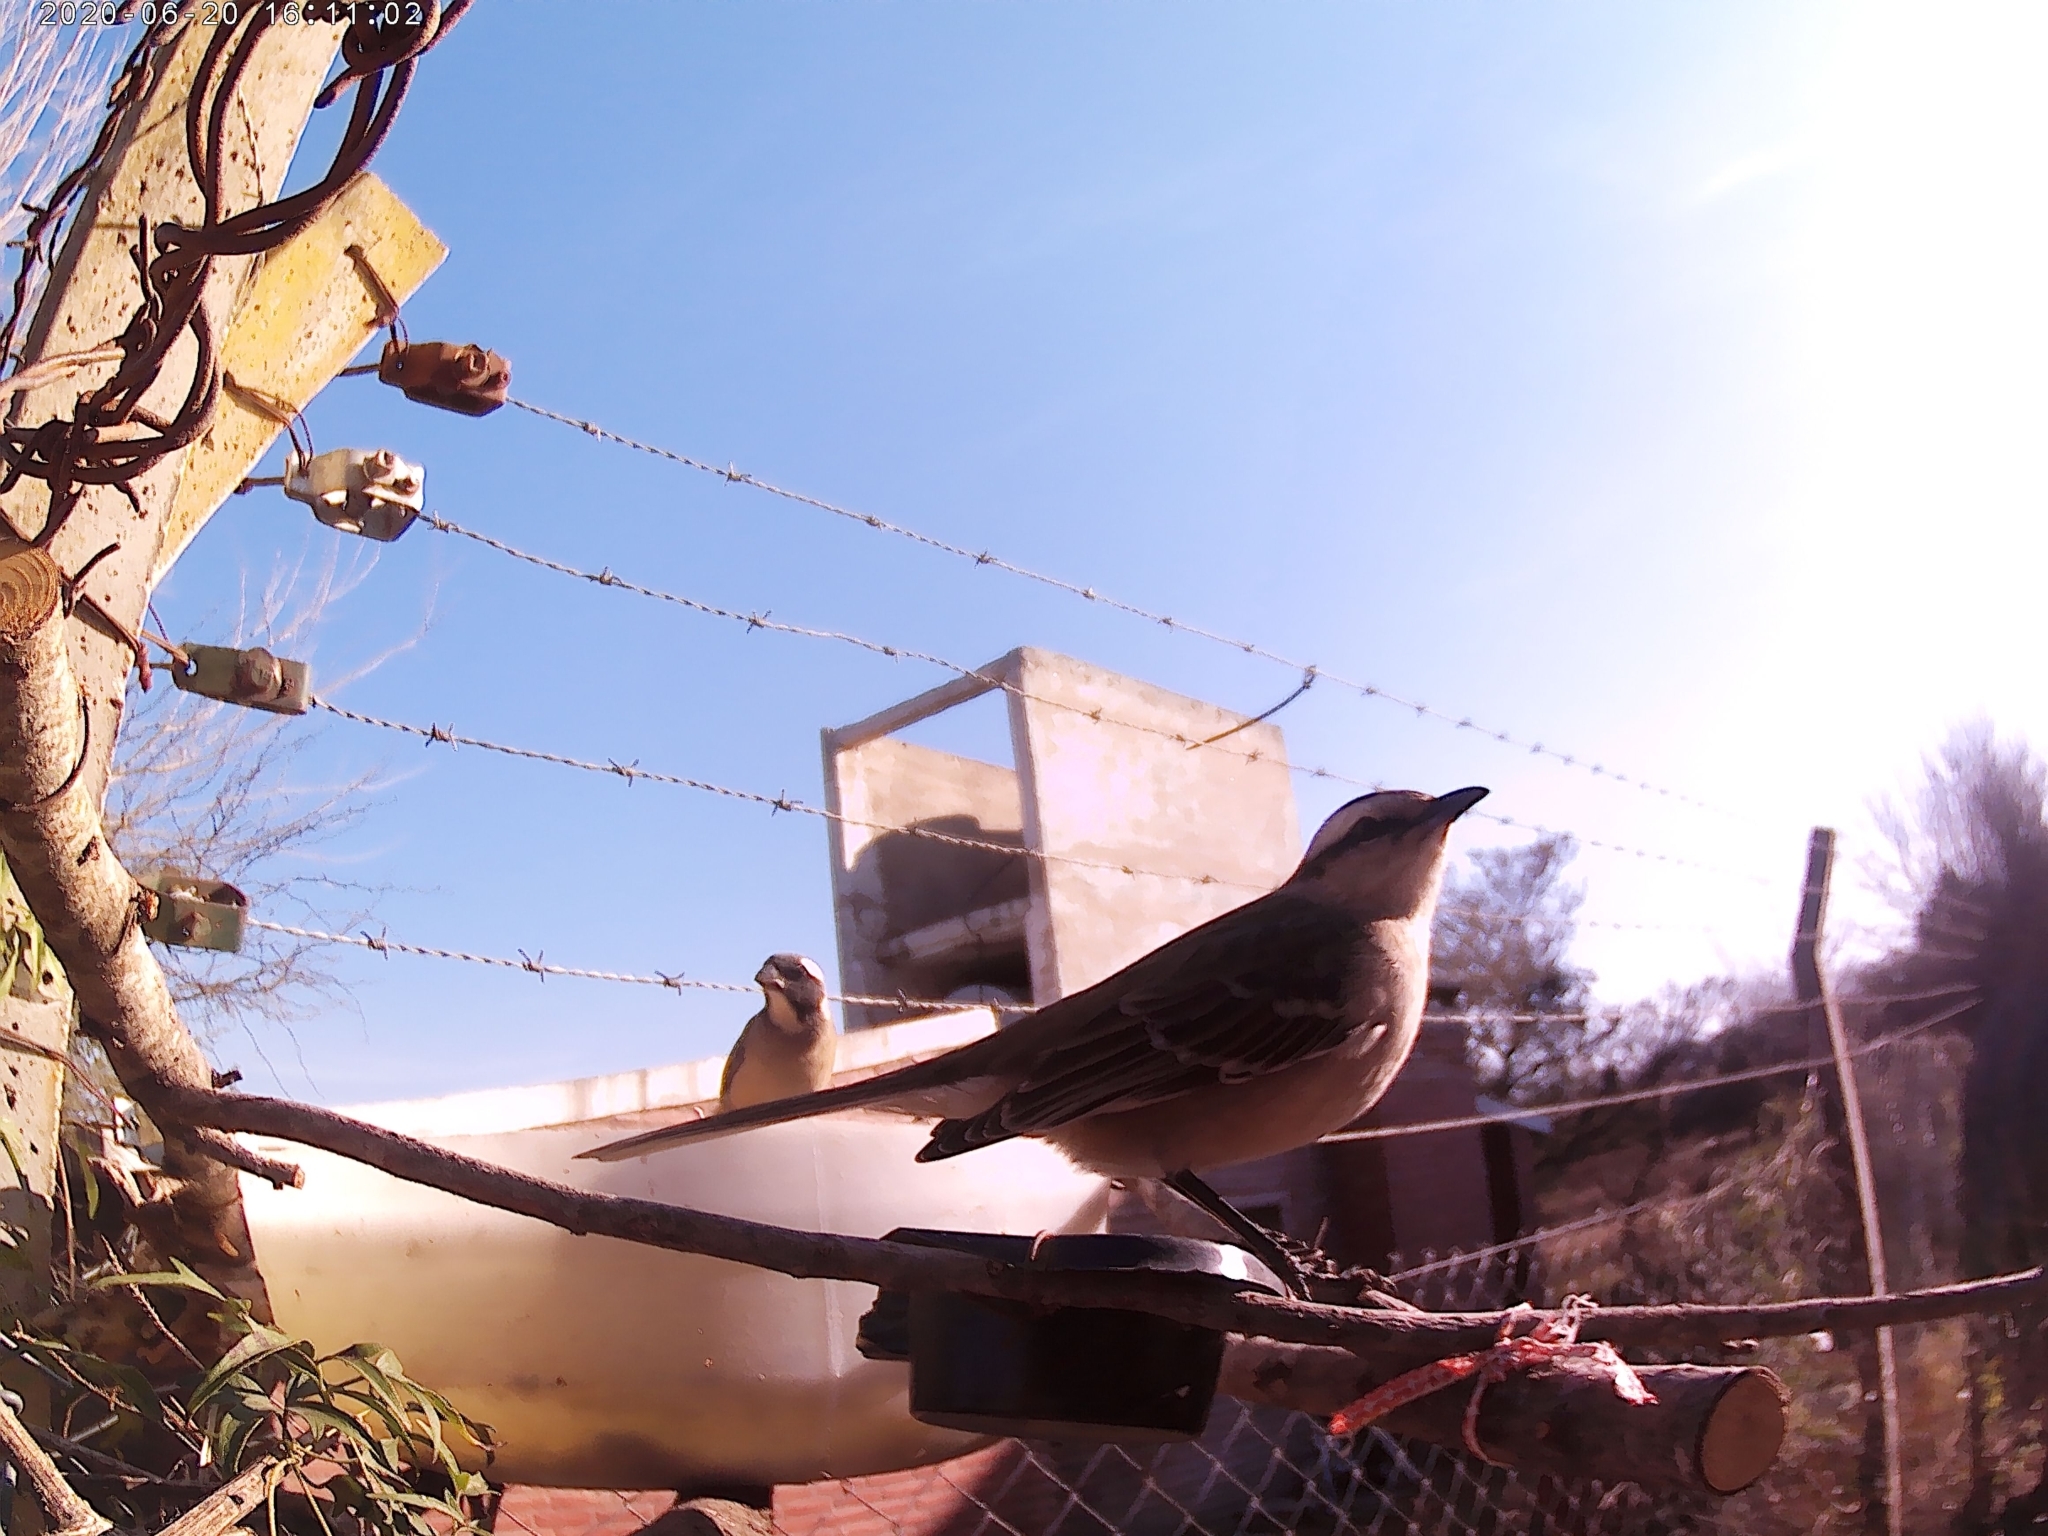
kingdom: Animalia
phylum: Chordata
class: Aves
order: Passeriformes
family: Thraupidae
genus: Saltator
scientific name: Saltator aurantiirostris
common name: Golden-billed saltator
